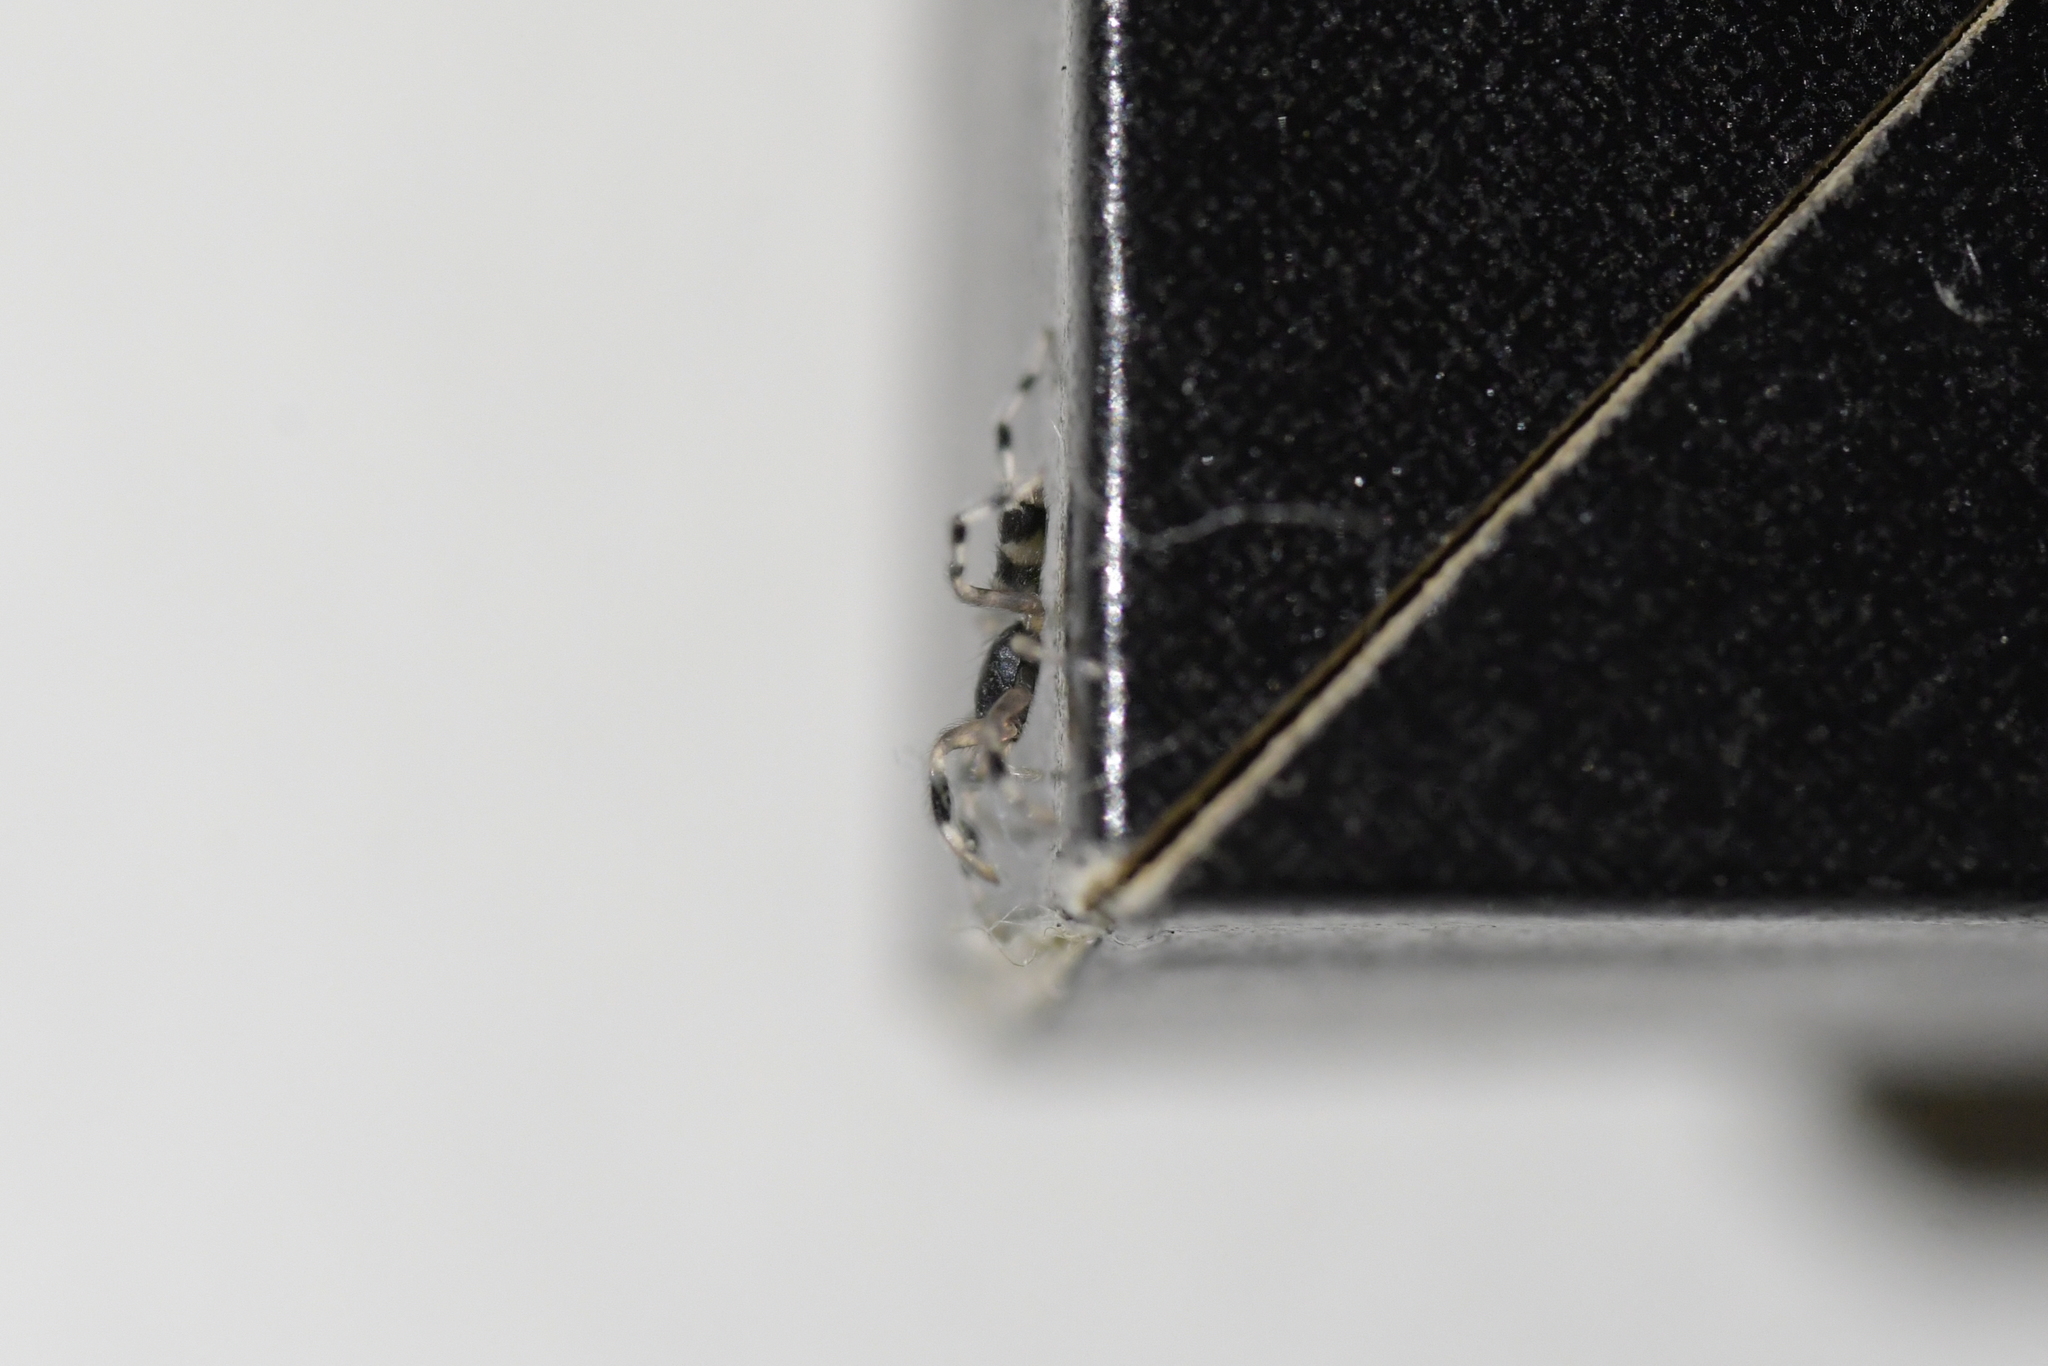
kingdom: Animalia
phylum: Arthropoda
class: Arachnida
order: Araneae
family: Lamponidae
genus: Lampona
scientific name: Lampona murina
